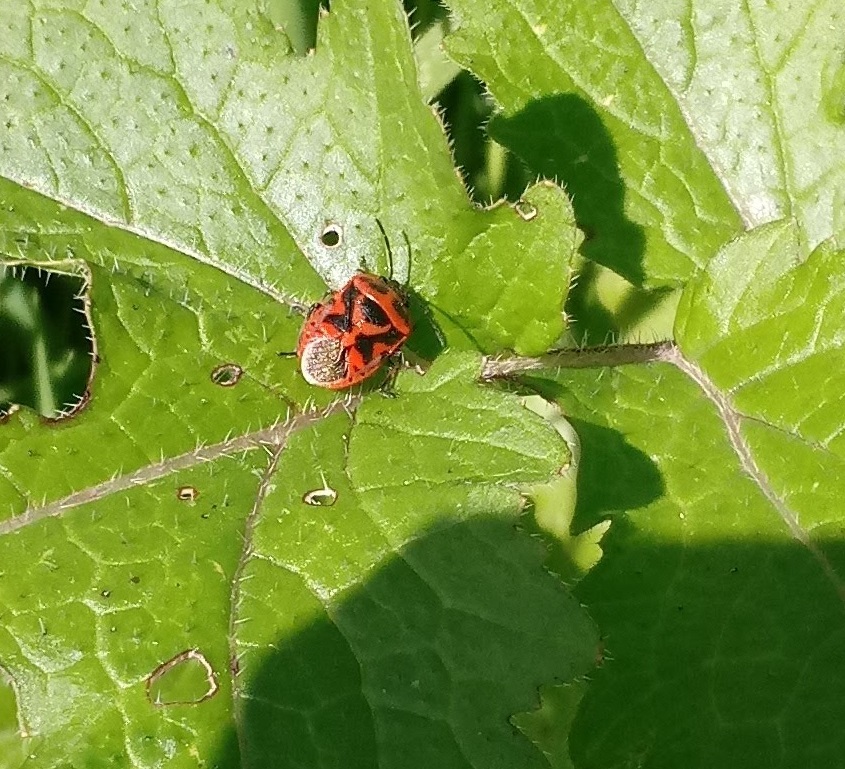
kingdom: Animalia
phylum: Arthropoda
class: Insecta
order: Hemiptera
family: Pentatomidae
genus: Eurydema
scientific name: Eurydema ornata
